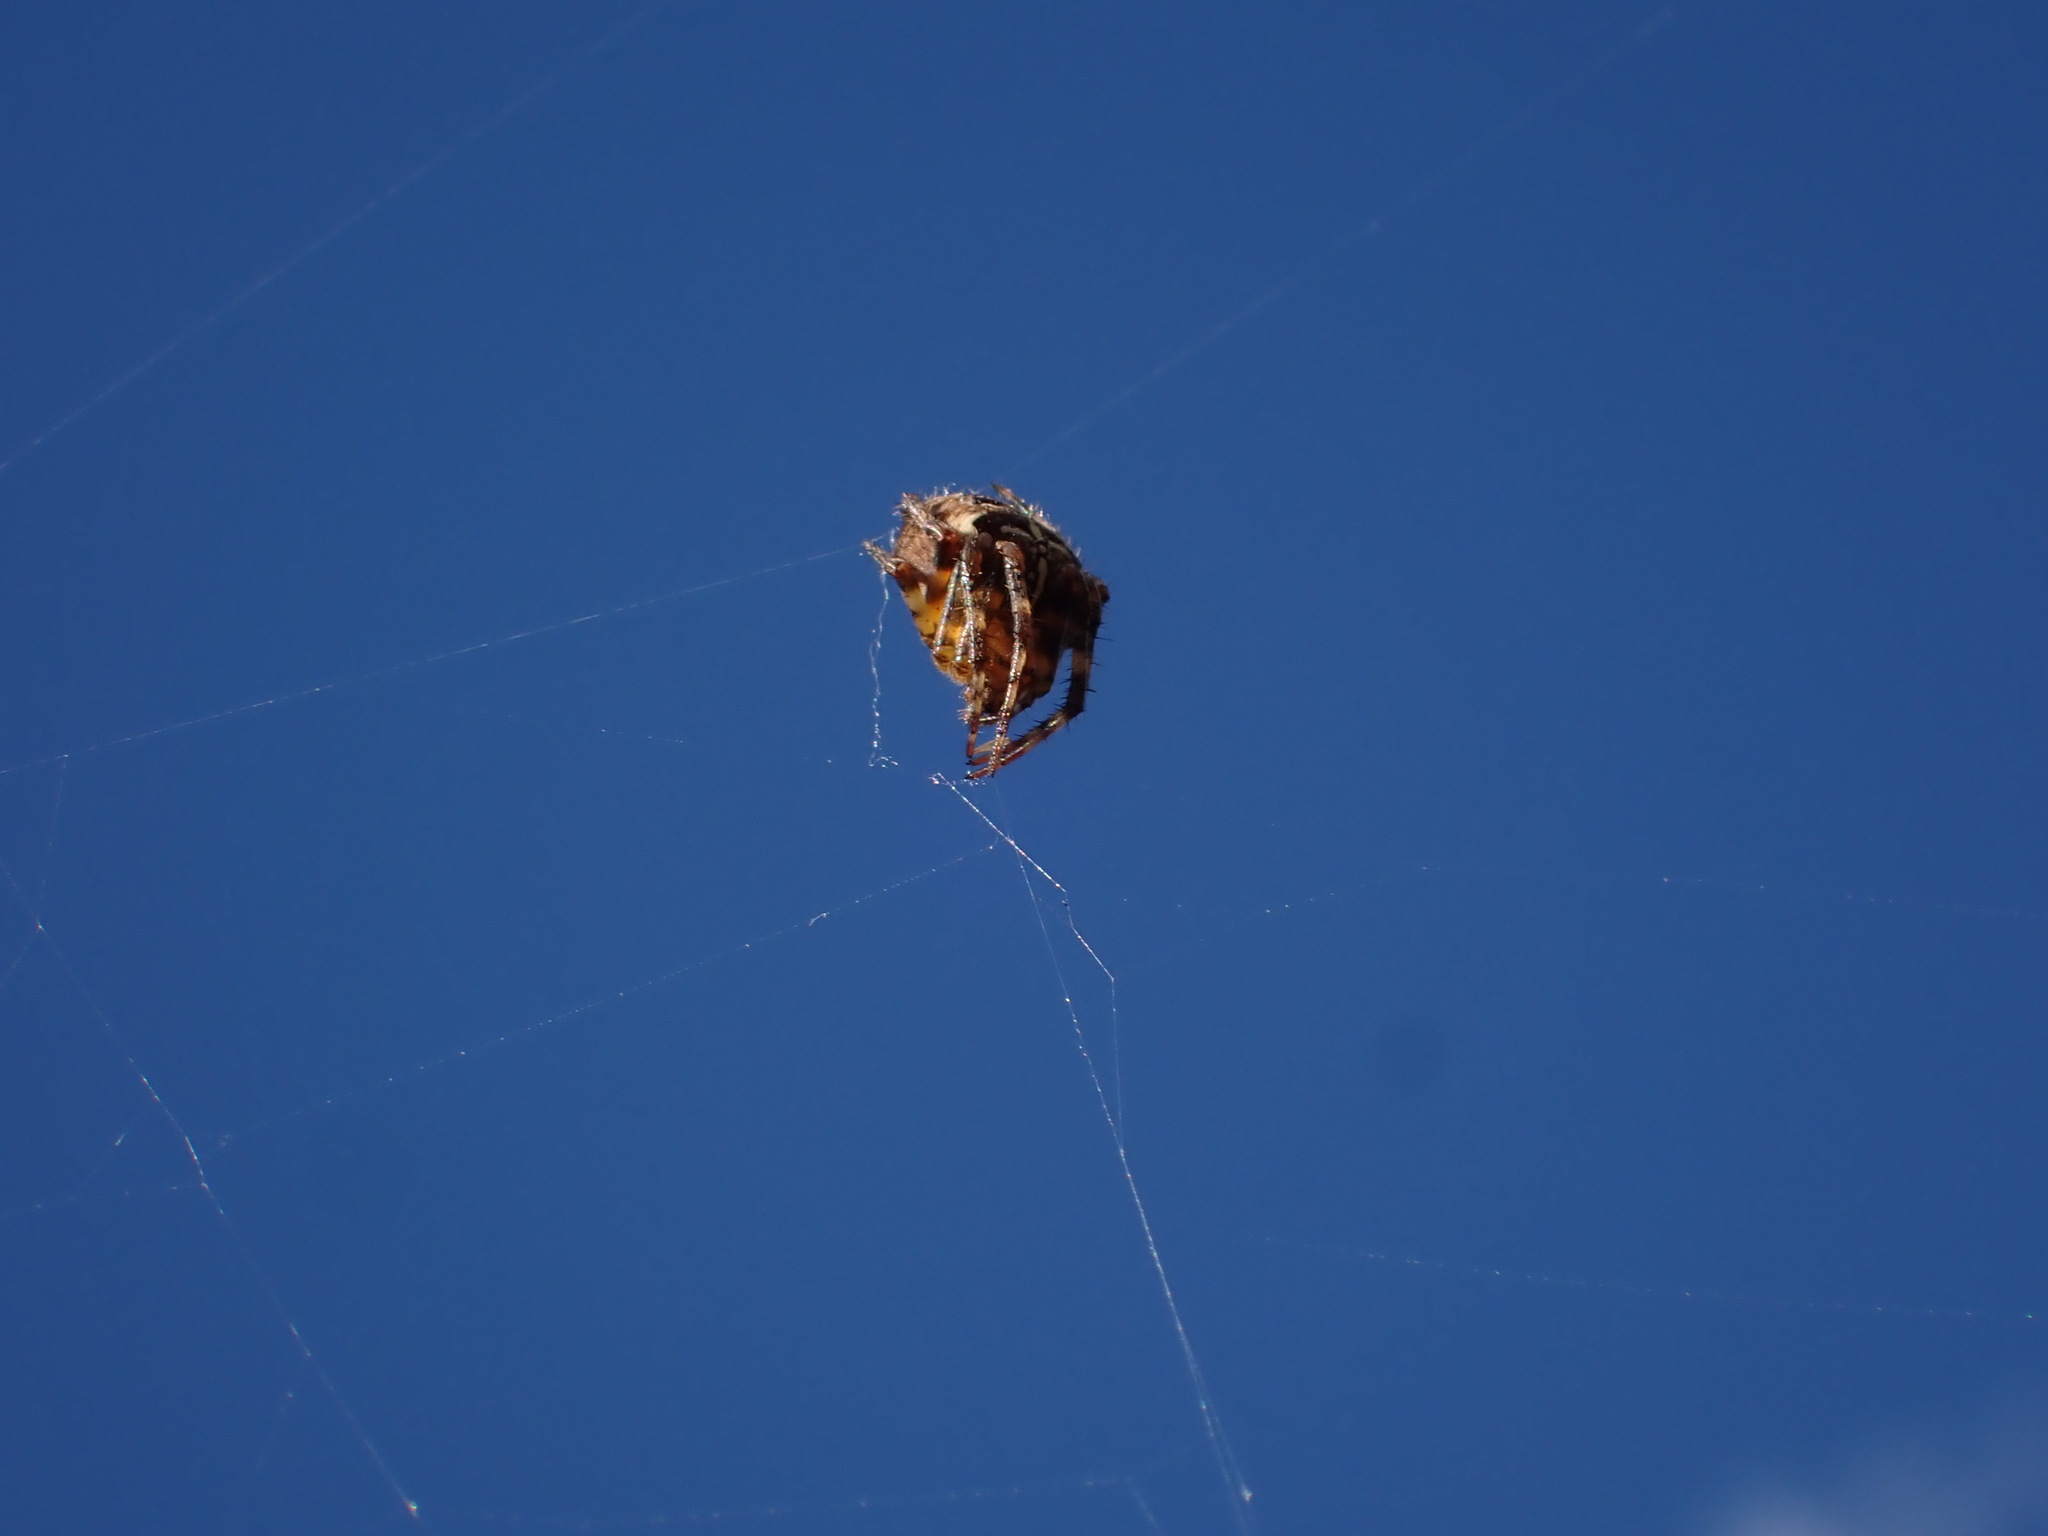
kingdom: Animalia
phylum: Arthropoda
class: Arachnida
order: Araneae
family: Araneidae
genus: Araneus
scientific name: Araneus diadematus
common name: Cross orbweaver
